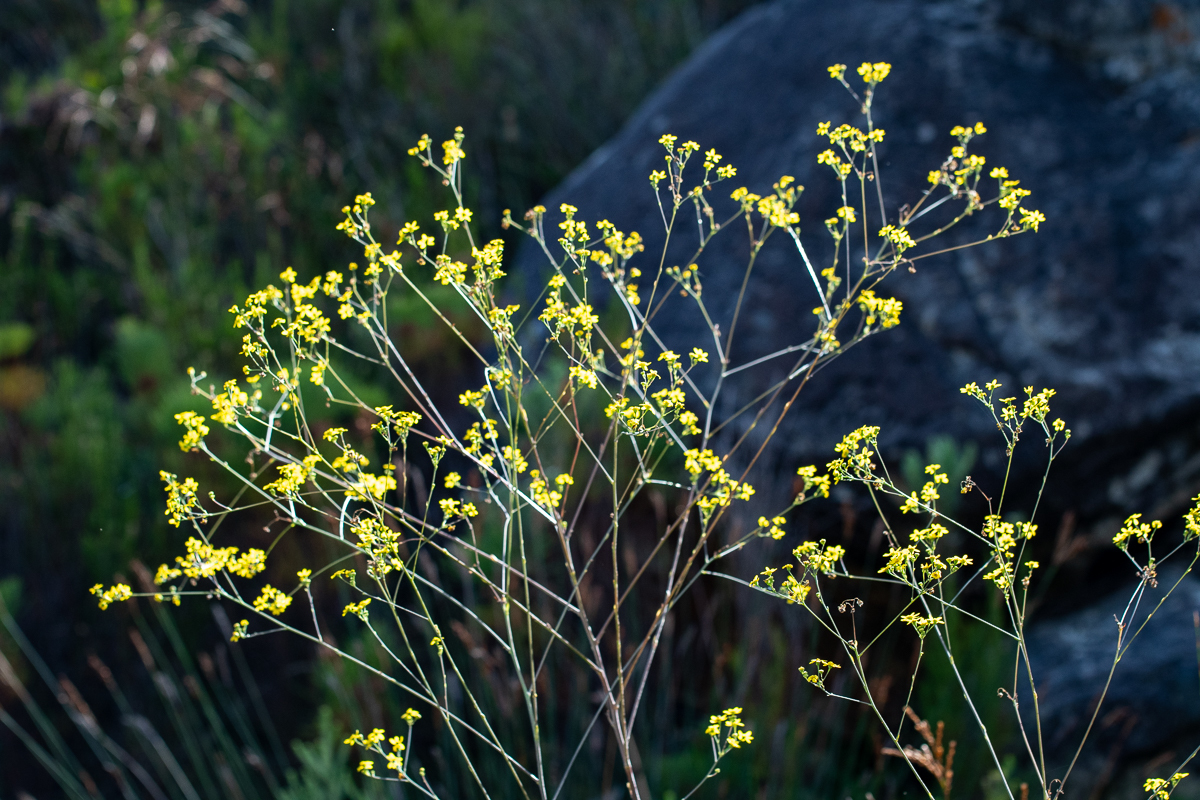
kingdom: Plantae
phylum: Tracheophyta
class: Magnoliopsida
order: Asterales
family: Asteraceae
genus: Othonna
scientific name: Othonna quinquedentata
